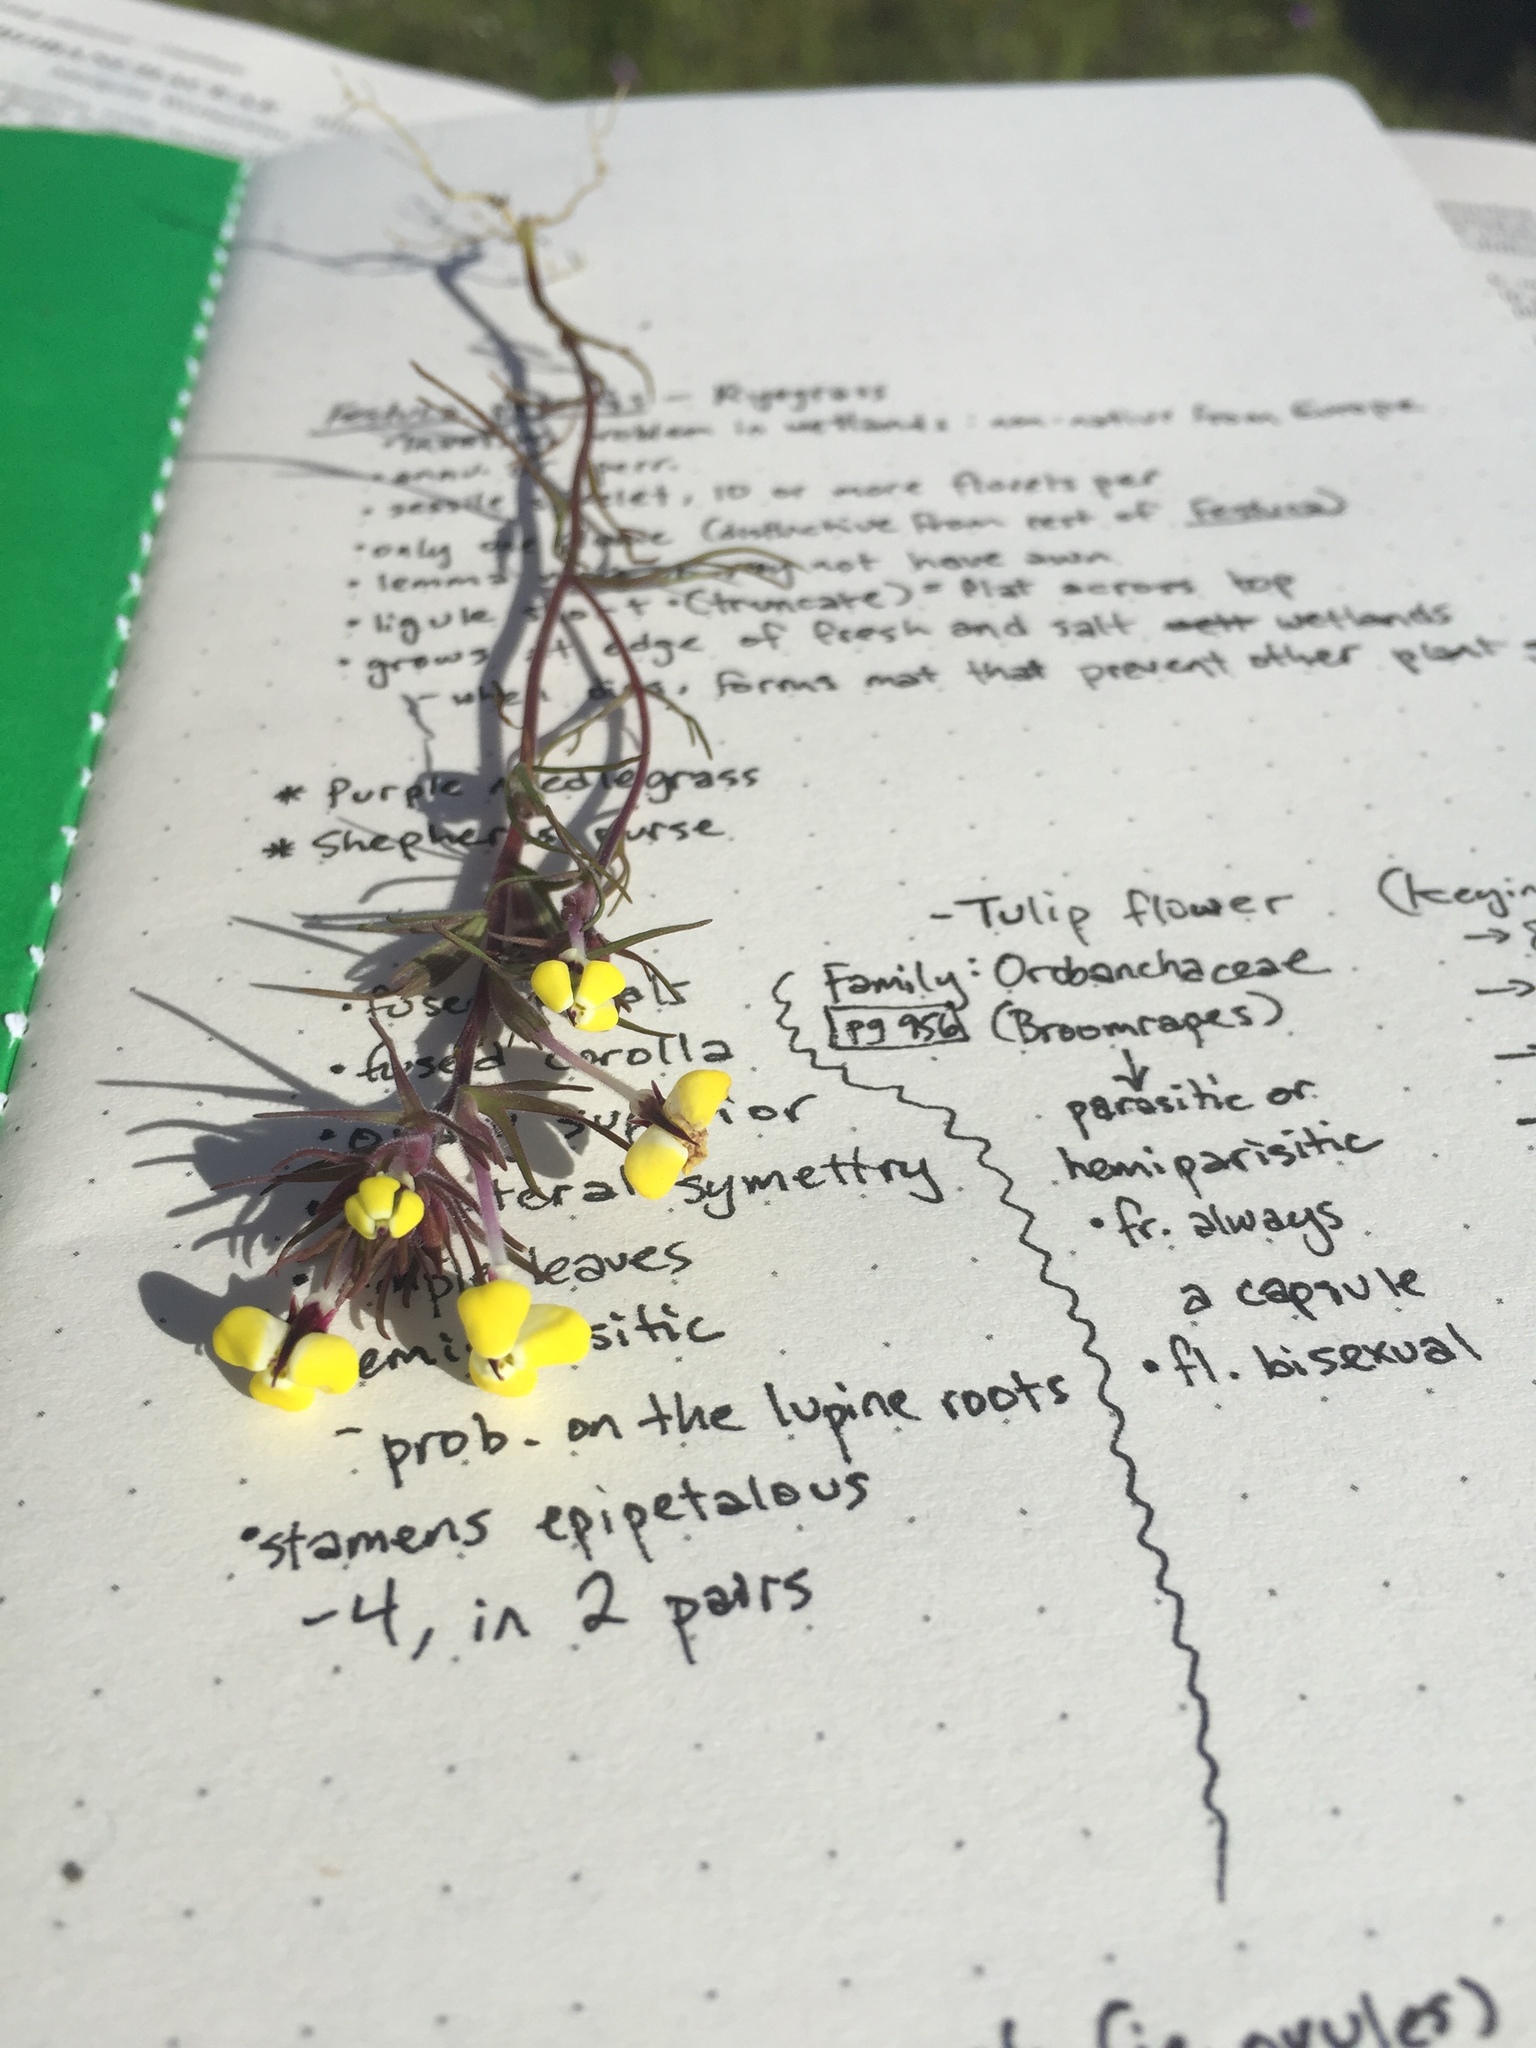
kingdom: Plantae
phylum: Tracheophyta
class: Magnoliopsida
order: Lamiales
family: Orobanchaceae
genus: Triphysaria
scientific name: Triphysaria eriantha
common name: Johnny-tuck
